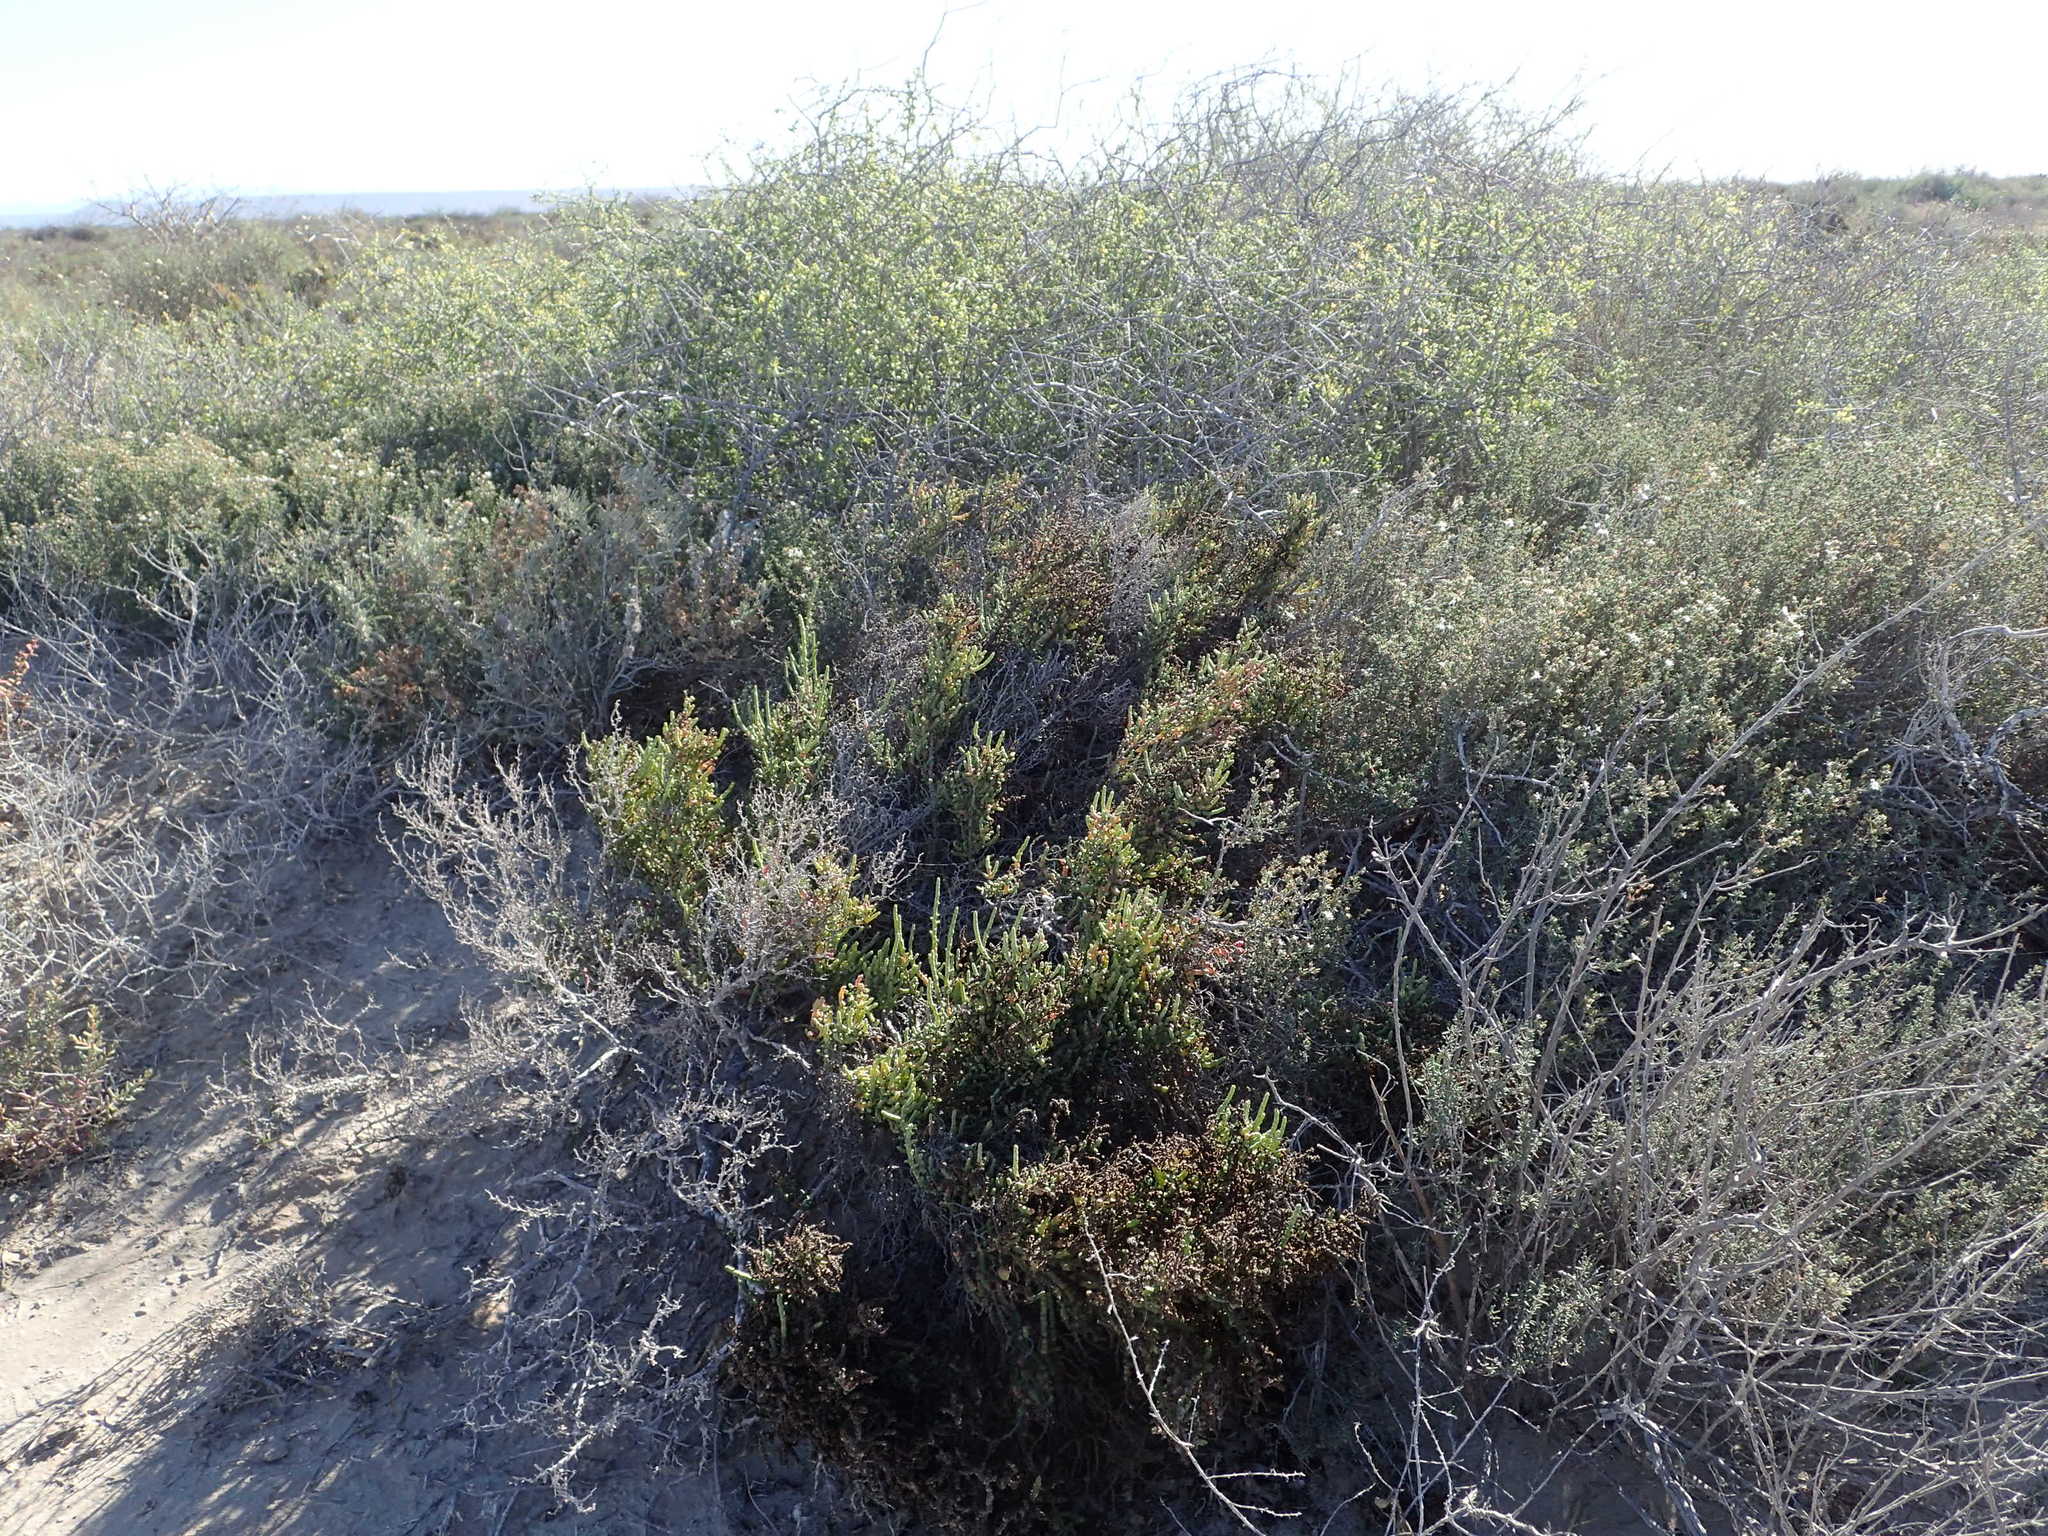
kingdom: Plantae
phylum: Tracheophyta
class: Magnoliopsida
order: Caryophyllales
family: Amaranthaceae
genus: Allenrolfea
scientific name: Allenrolfea occidentalis
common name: Iodine-bush
